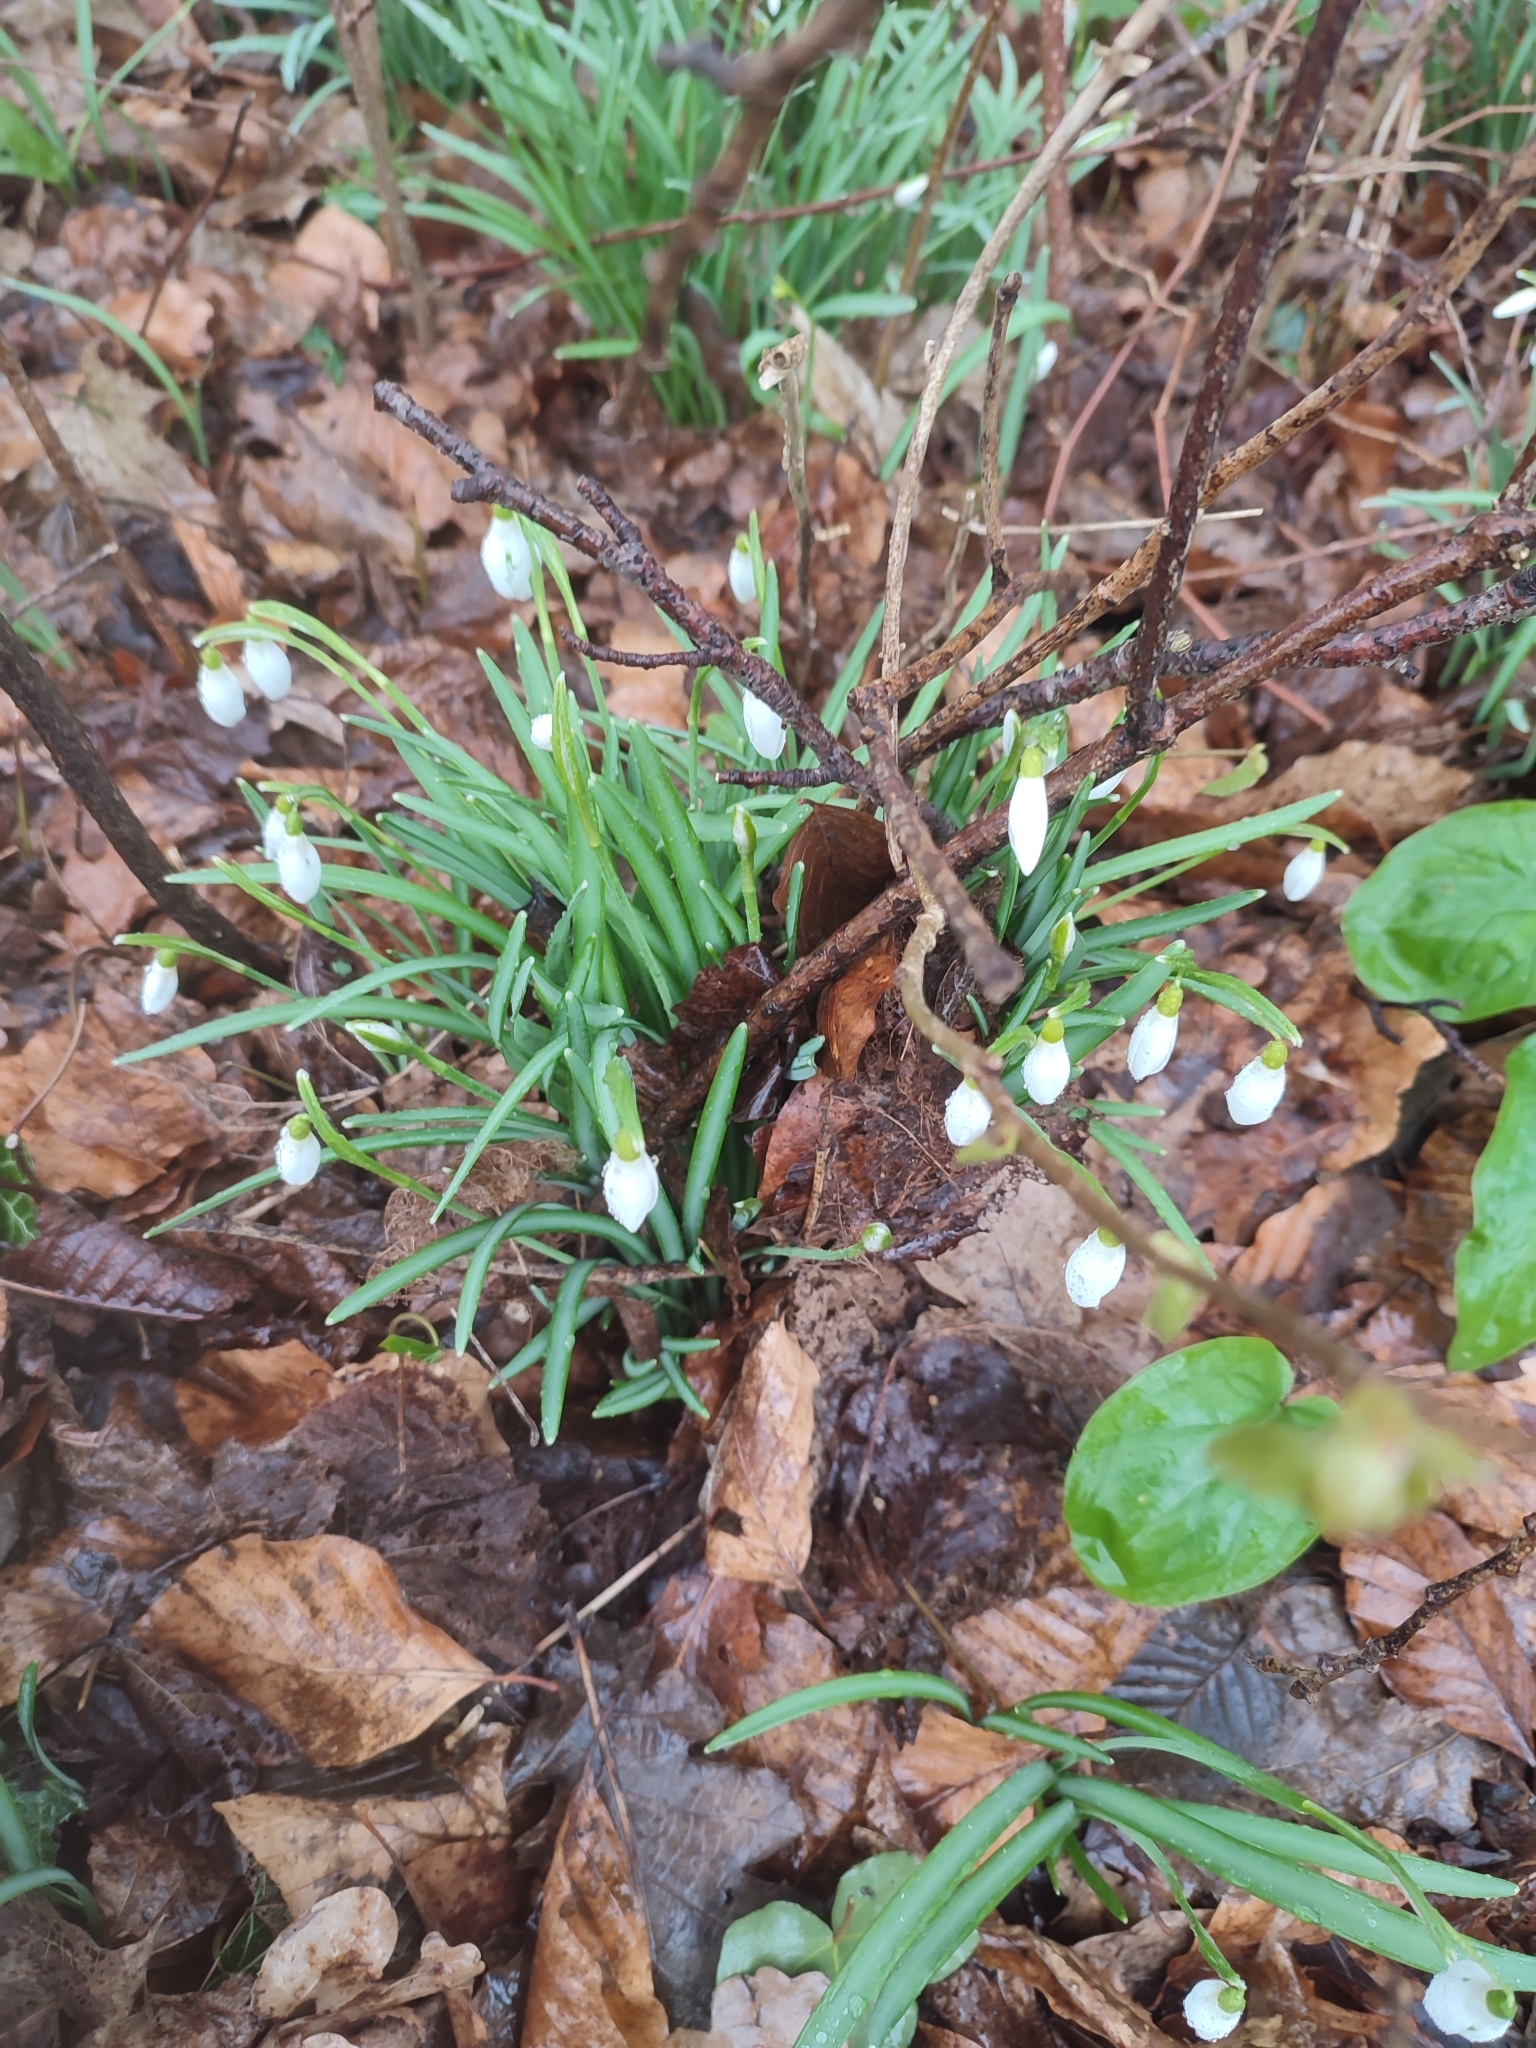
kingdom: Plantae
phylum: Tracheophyta
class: Liliopsida
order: Asparagales
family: Amaryllidaceae
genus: Galanthus
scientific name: Galanthus nivalis
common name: Snowdrop
